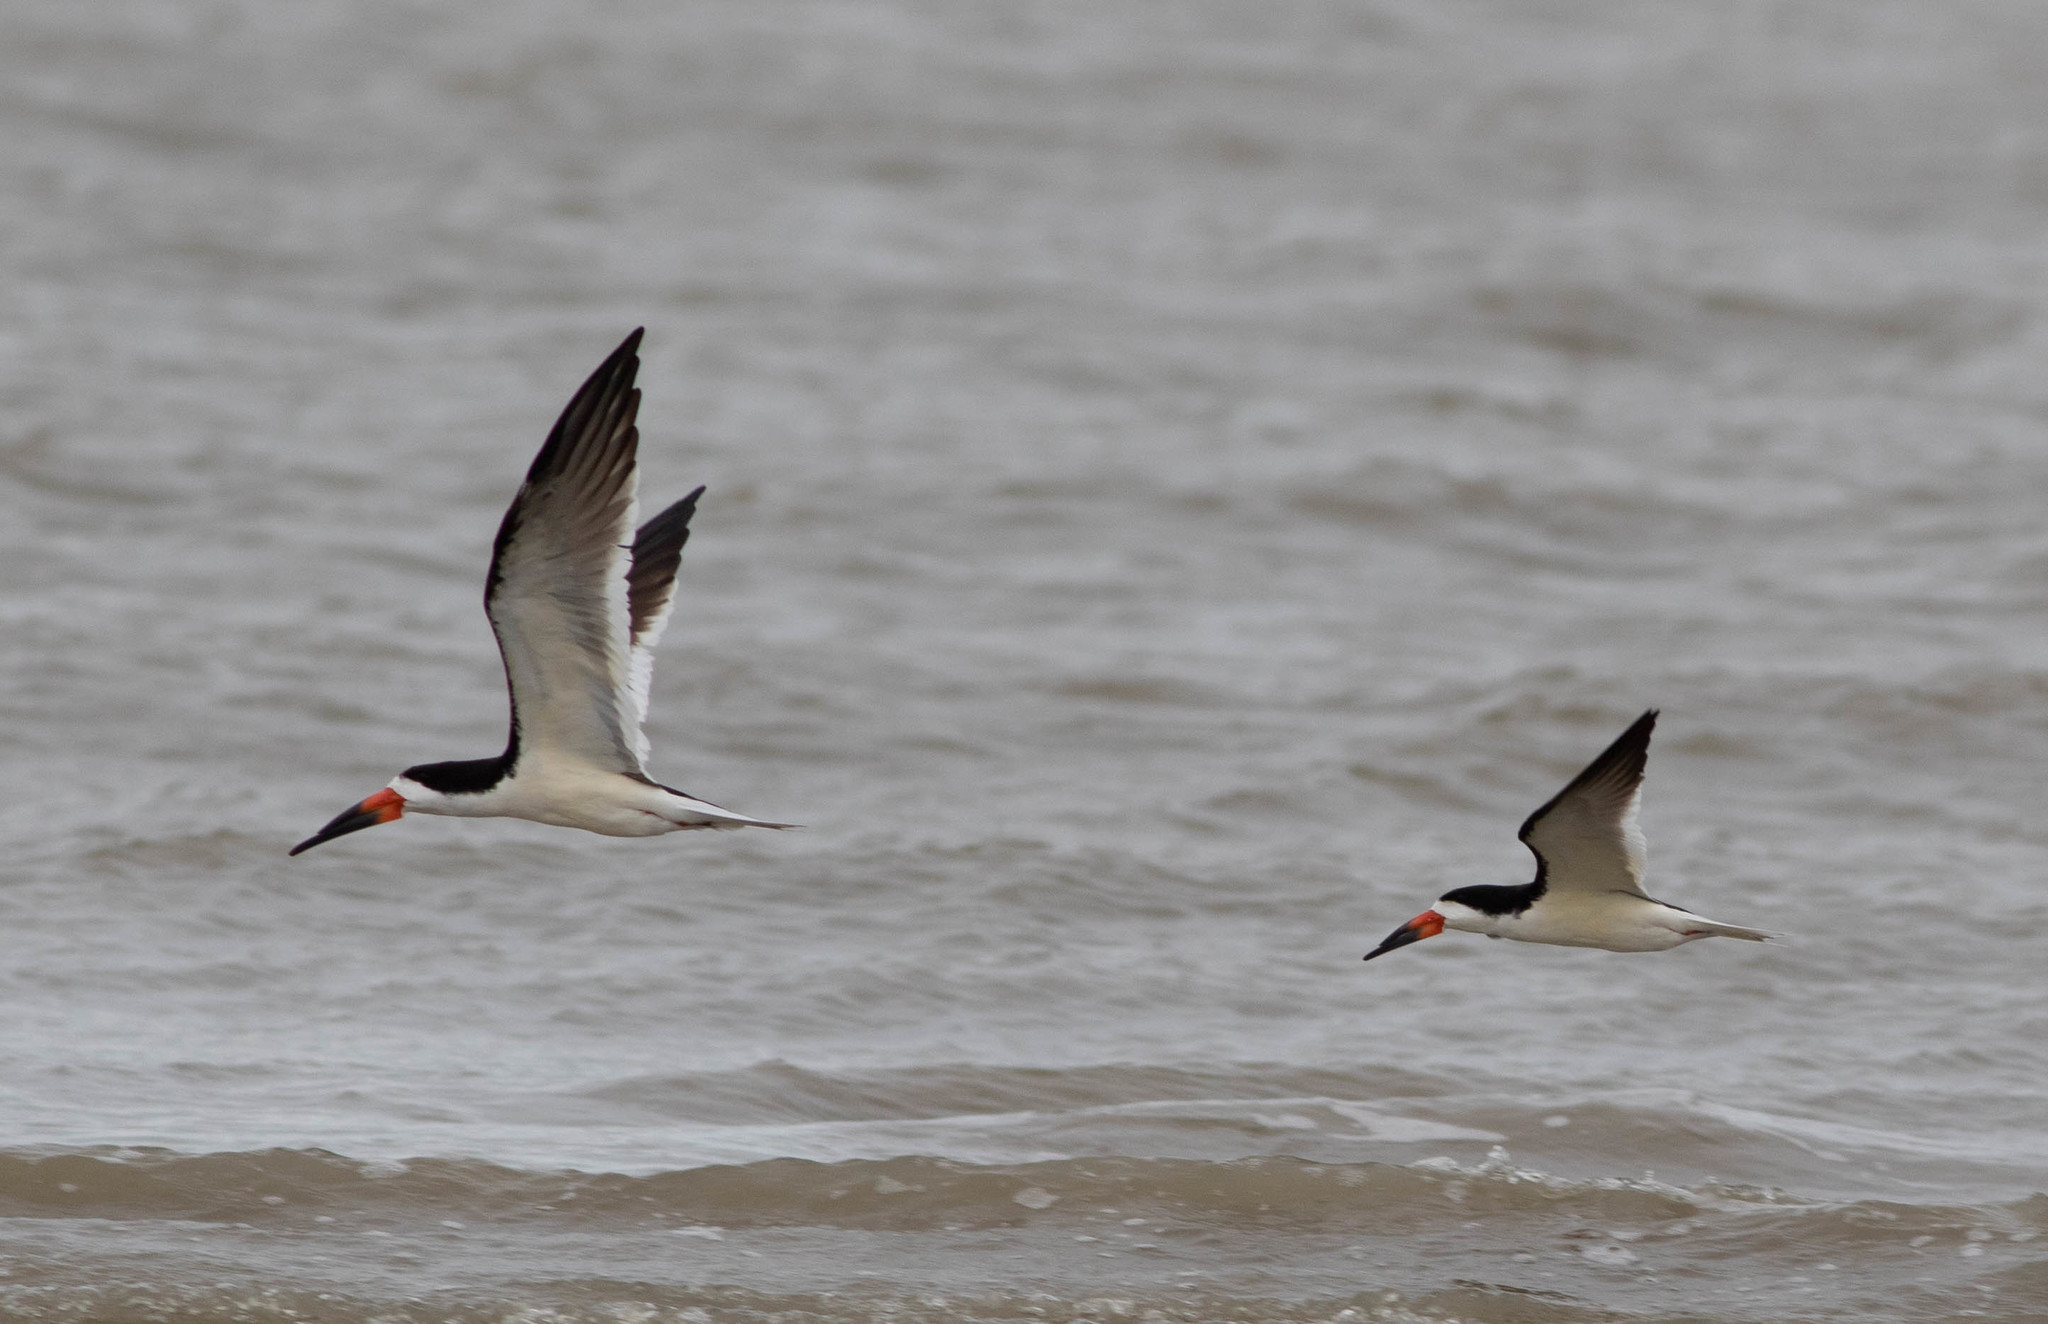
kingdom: Animalia
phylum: Chordata
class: Aves
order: Charadriiformes
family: Laridae
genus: Rynchops
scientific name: Rynchops niger
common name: Black skimmer
